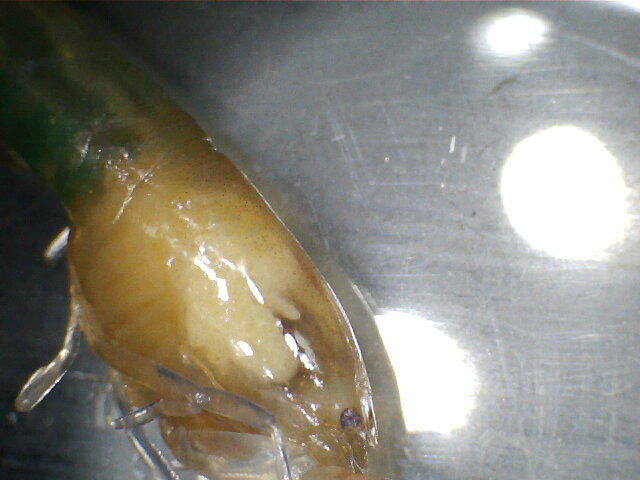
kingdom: Animalia
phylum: Arthropoda
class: Malacostraca
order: Decapoda
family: Palaemonidae
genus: Typton
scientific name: Typton spongicola
